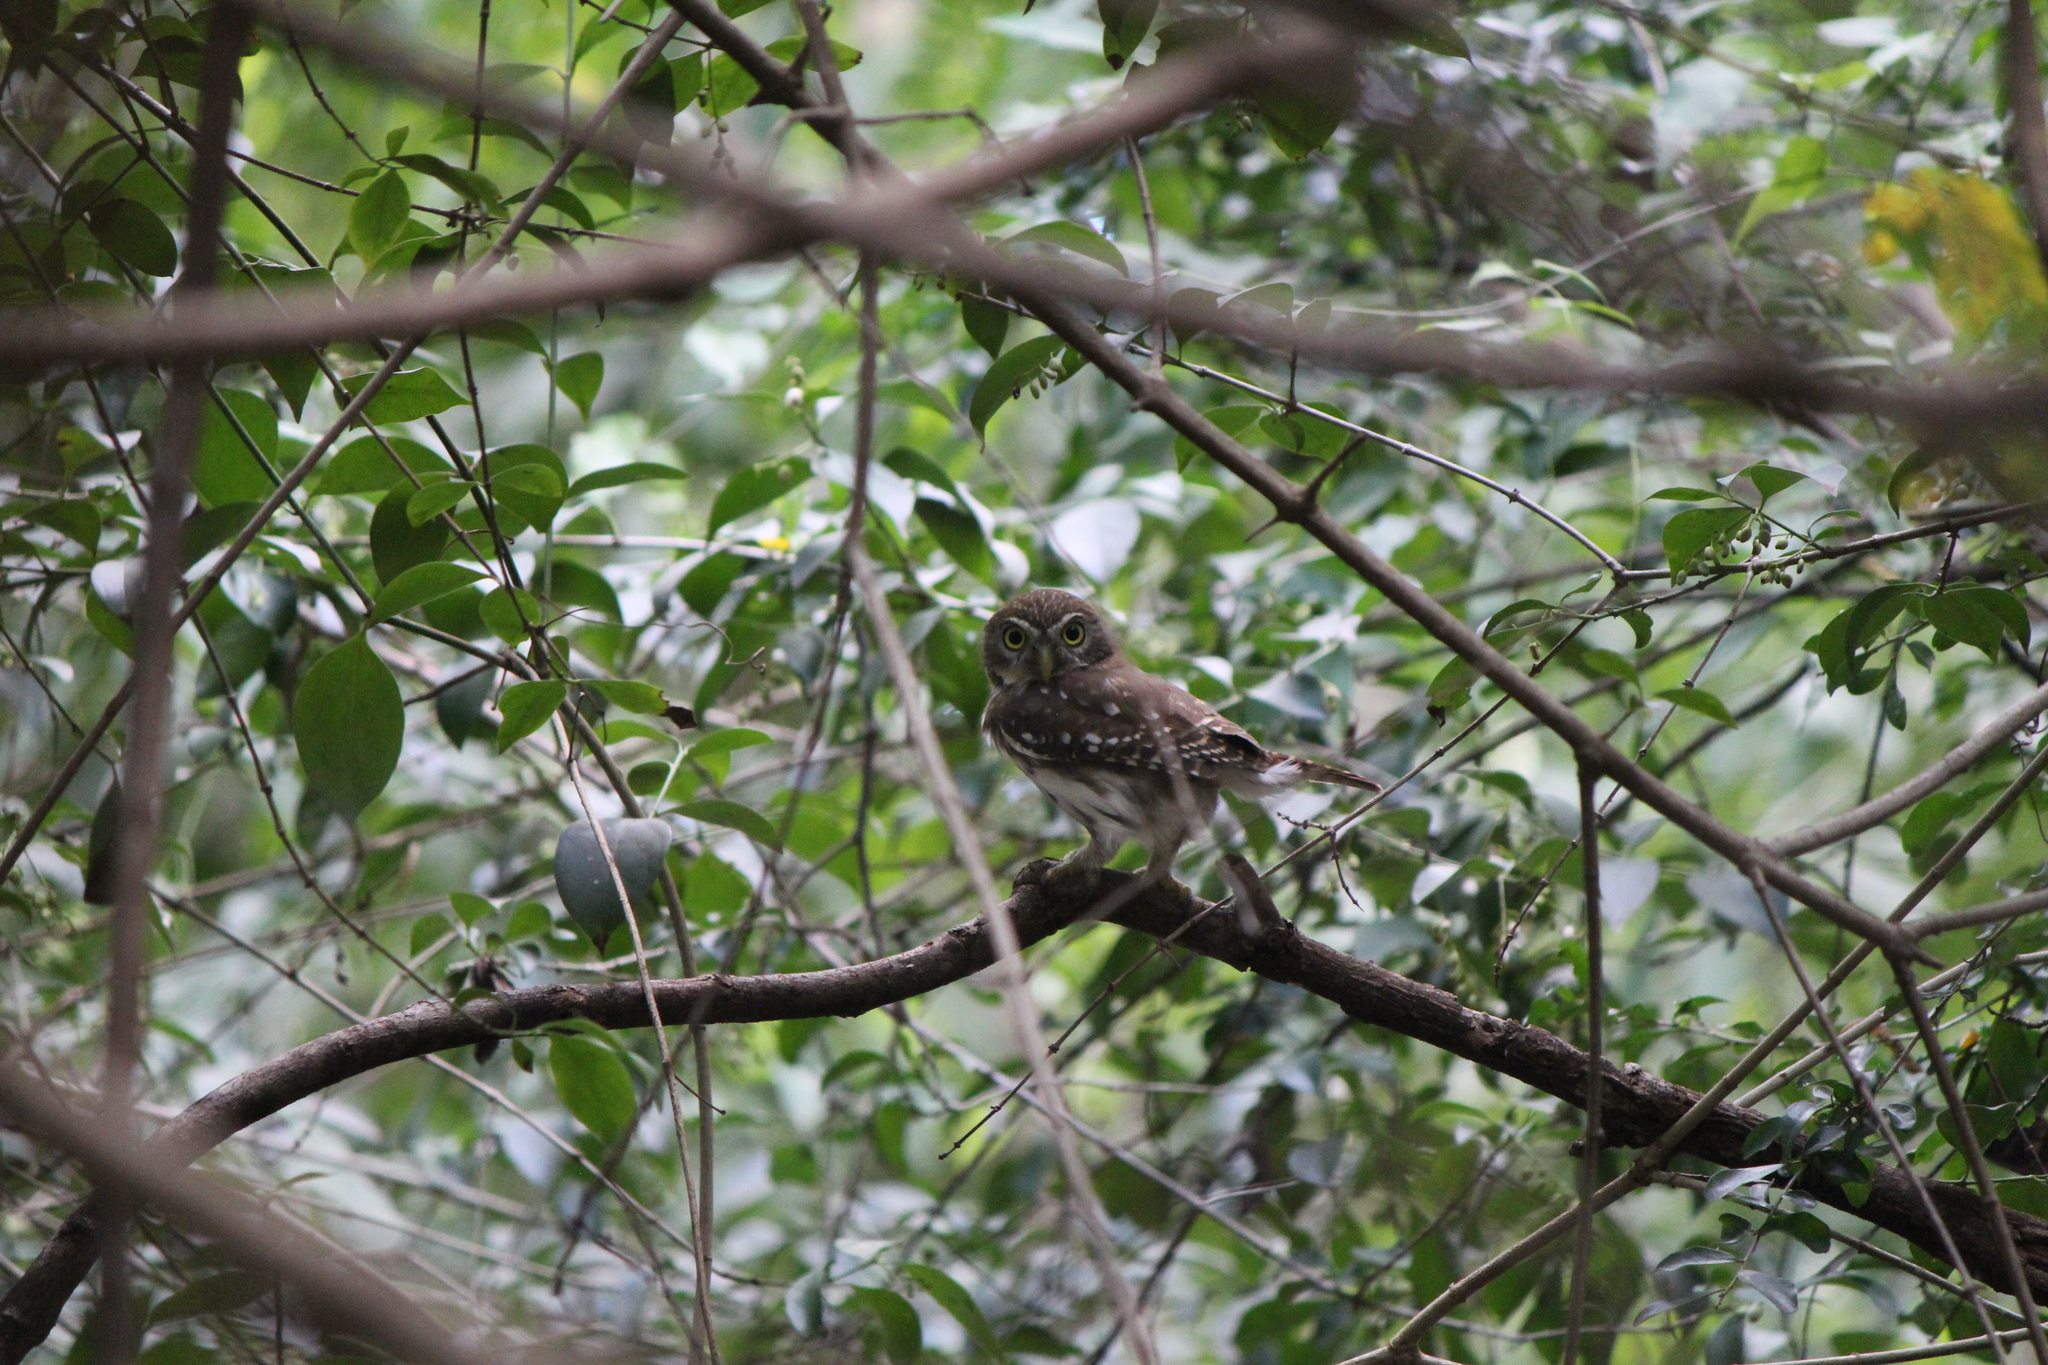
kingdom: Animalia
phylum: Chordata
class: Aves
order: Strigiformes
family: Strigidae
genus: Glaucidium
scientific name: Glaucidium brasilianum
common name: Ferruginous pygmy-owl
